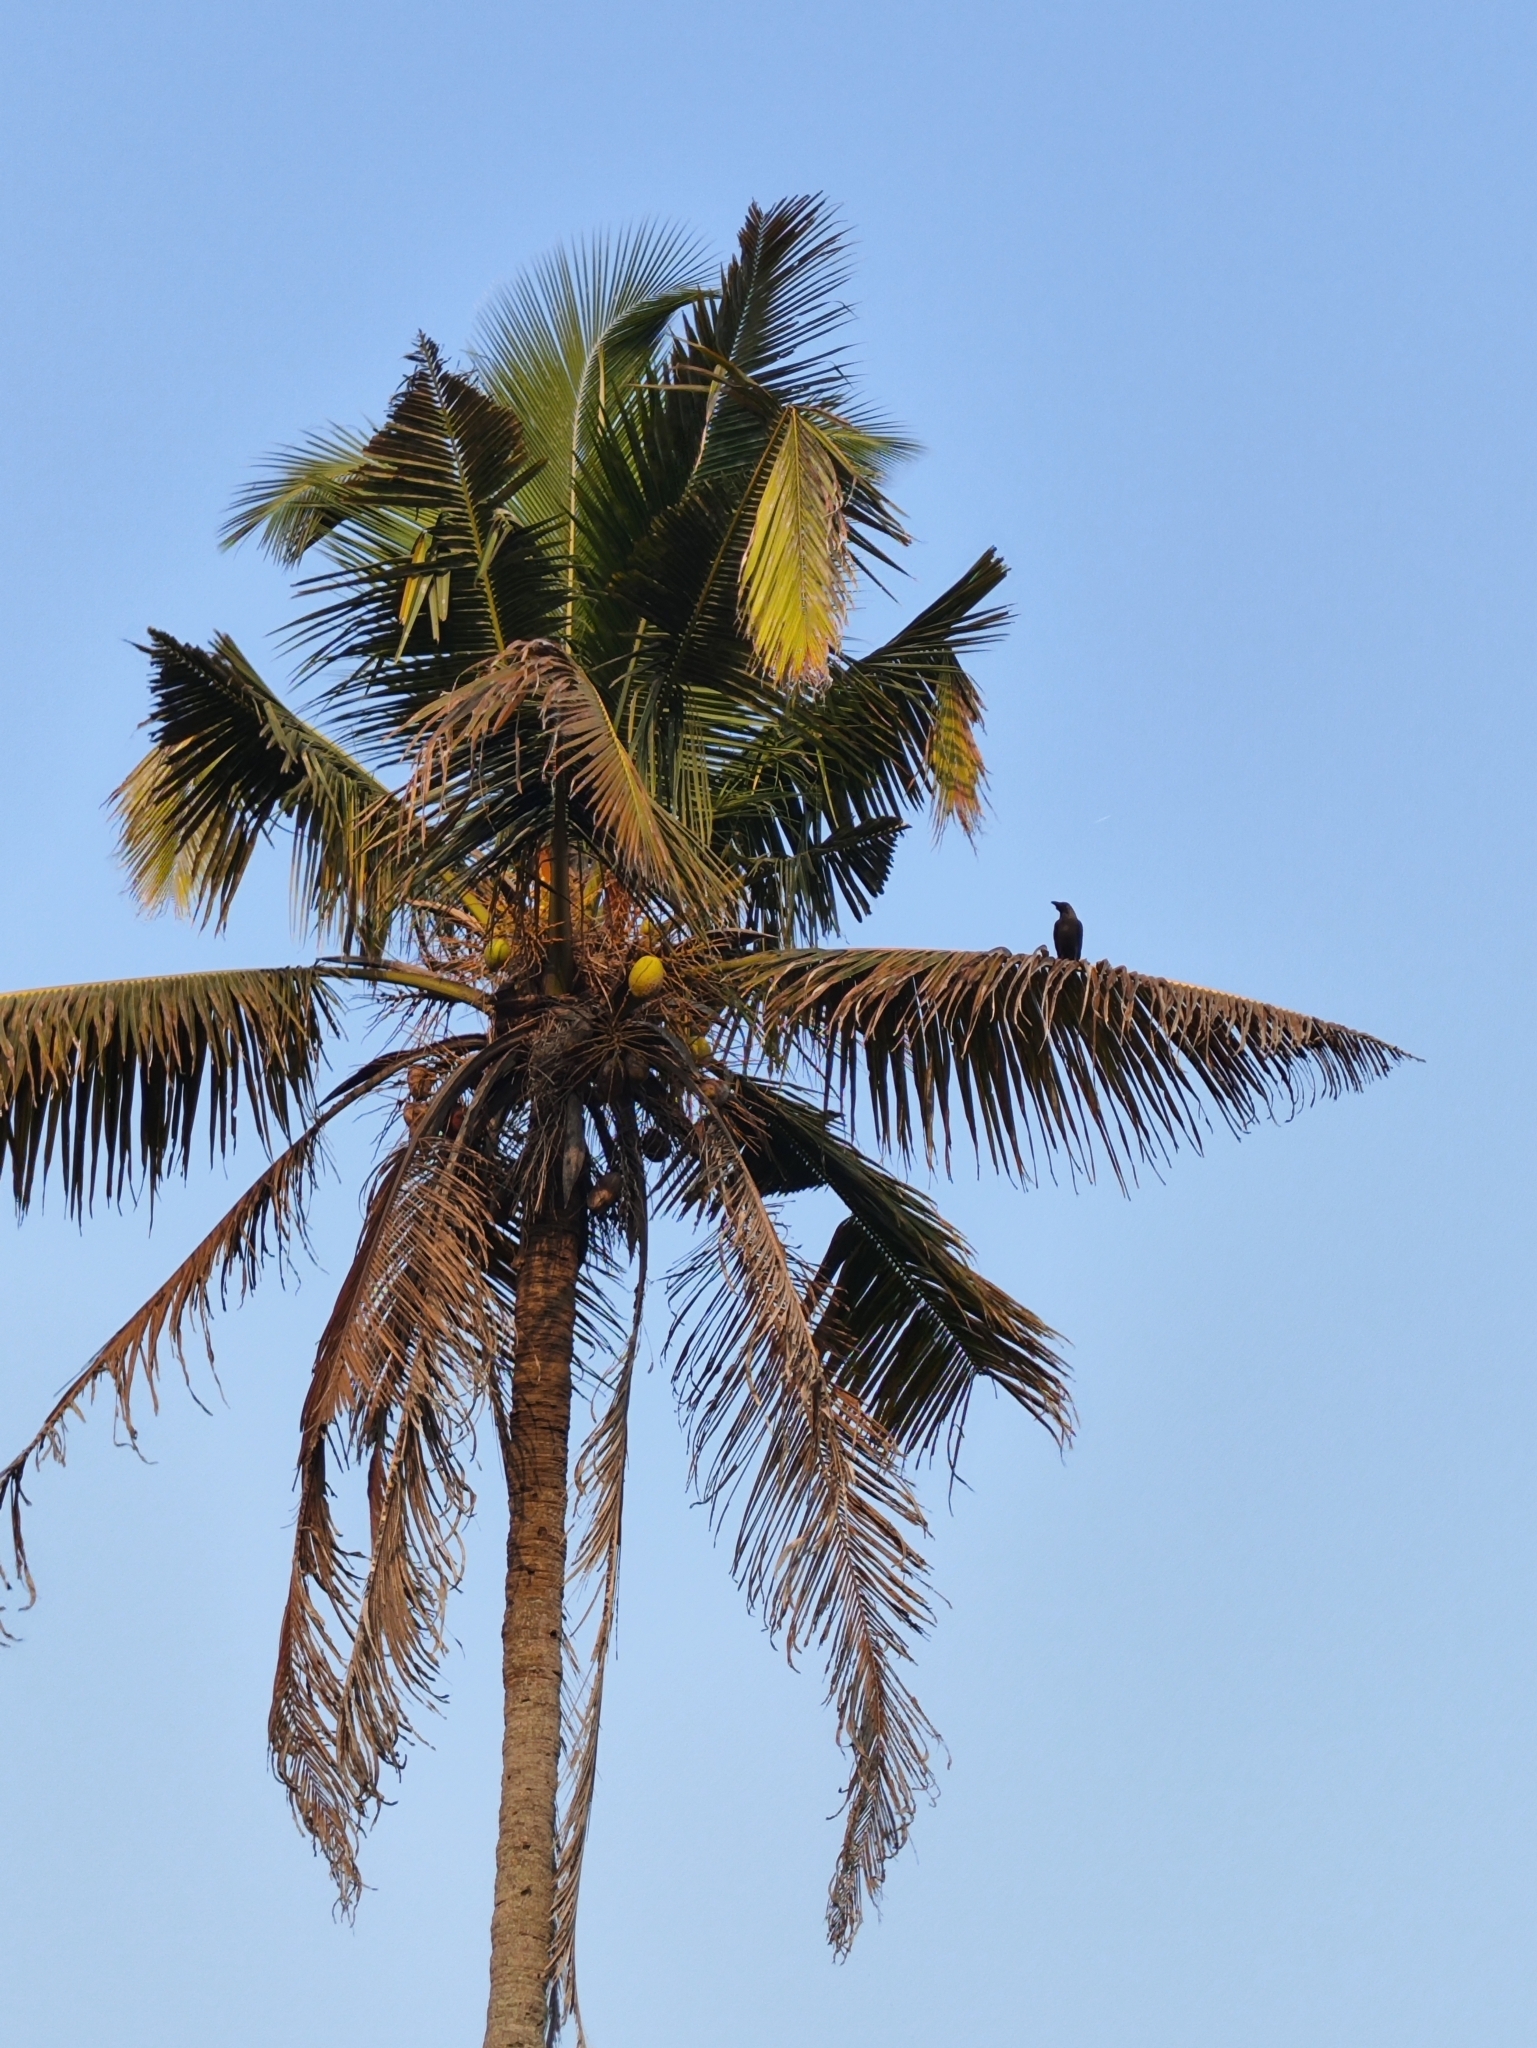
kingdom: Animalia
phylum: Chordata
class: Aves
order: Passeriformes
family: Corvidae
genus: Corvus
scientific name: Corvus splendens
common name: House crow
